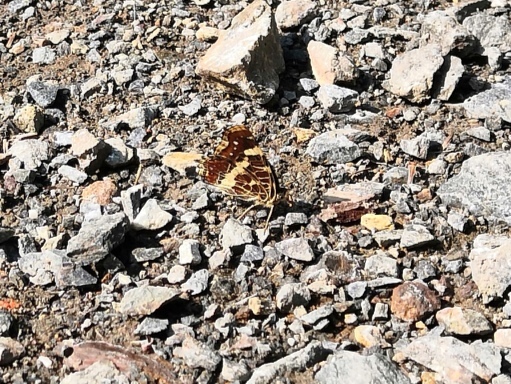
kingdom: Animalia
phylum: Arthropoda
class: Insecta
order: Lepidoptera
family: Nymphalidae
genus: Araschnia
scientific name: Araschnia levana
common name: Map butterfly
